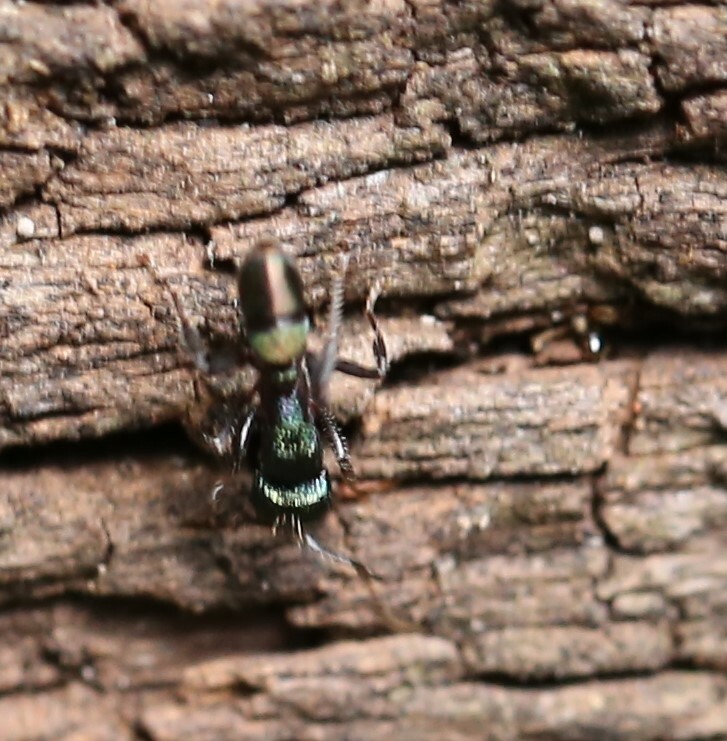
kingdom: Animalia
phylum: Arthropoda
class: Insecta
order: Hymenoptera
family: Formicidae
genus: Rhytidoponera
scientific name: Rhytidoponera metallica
